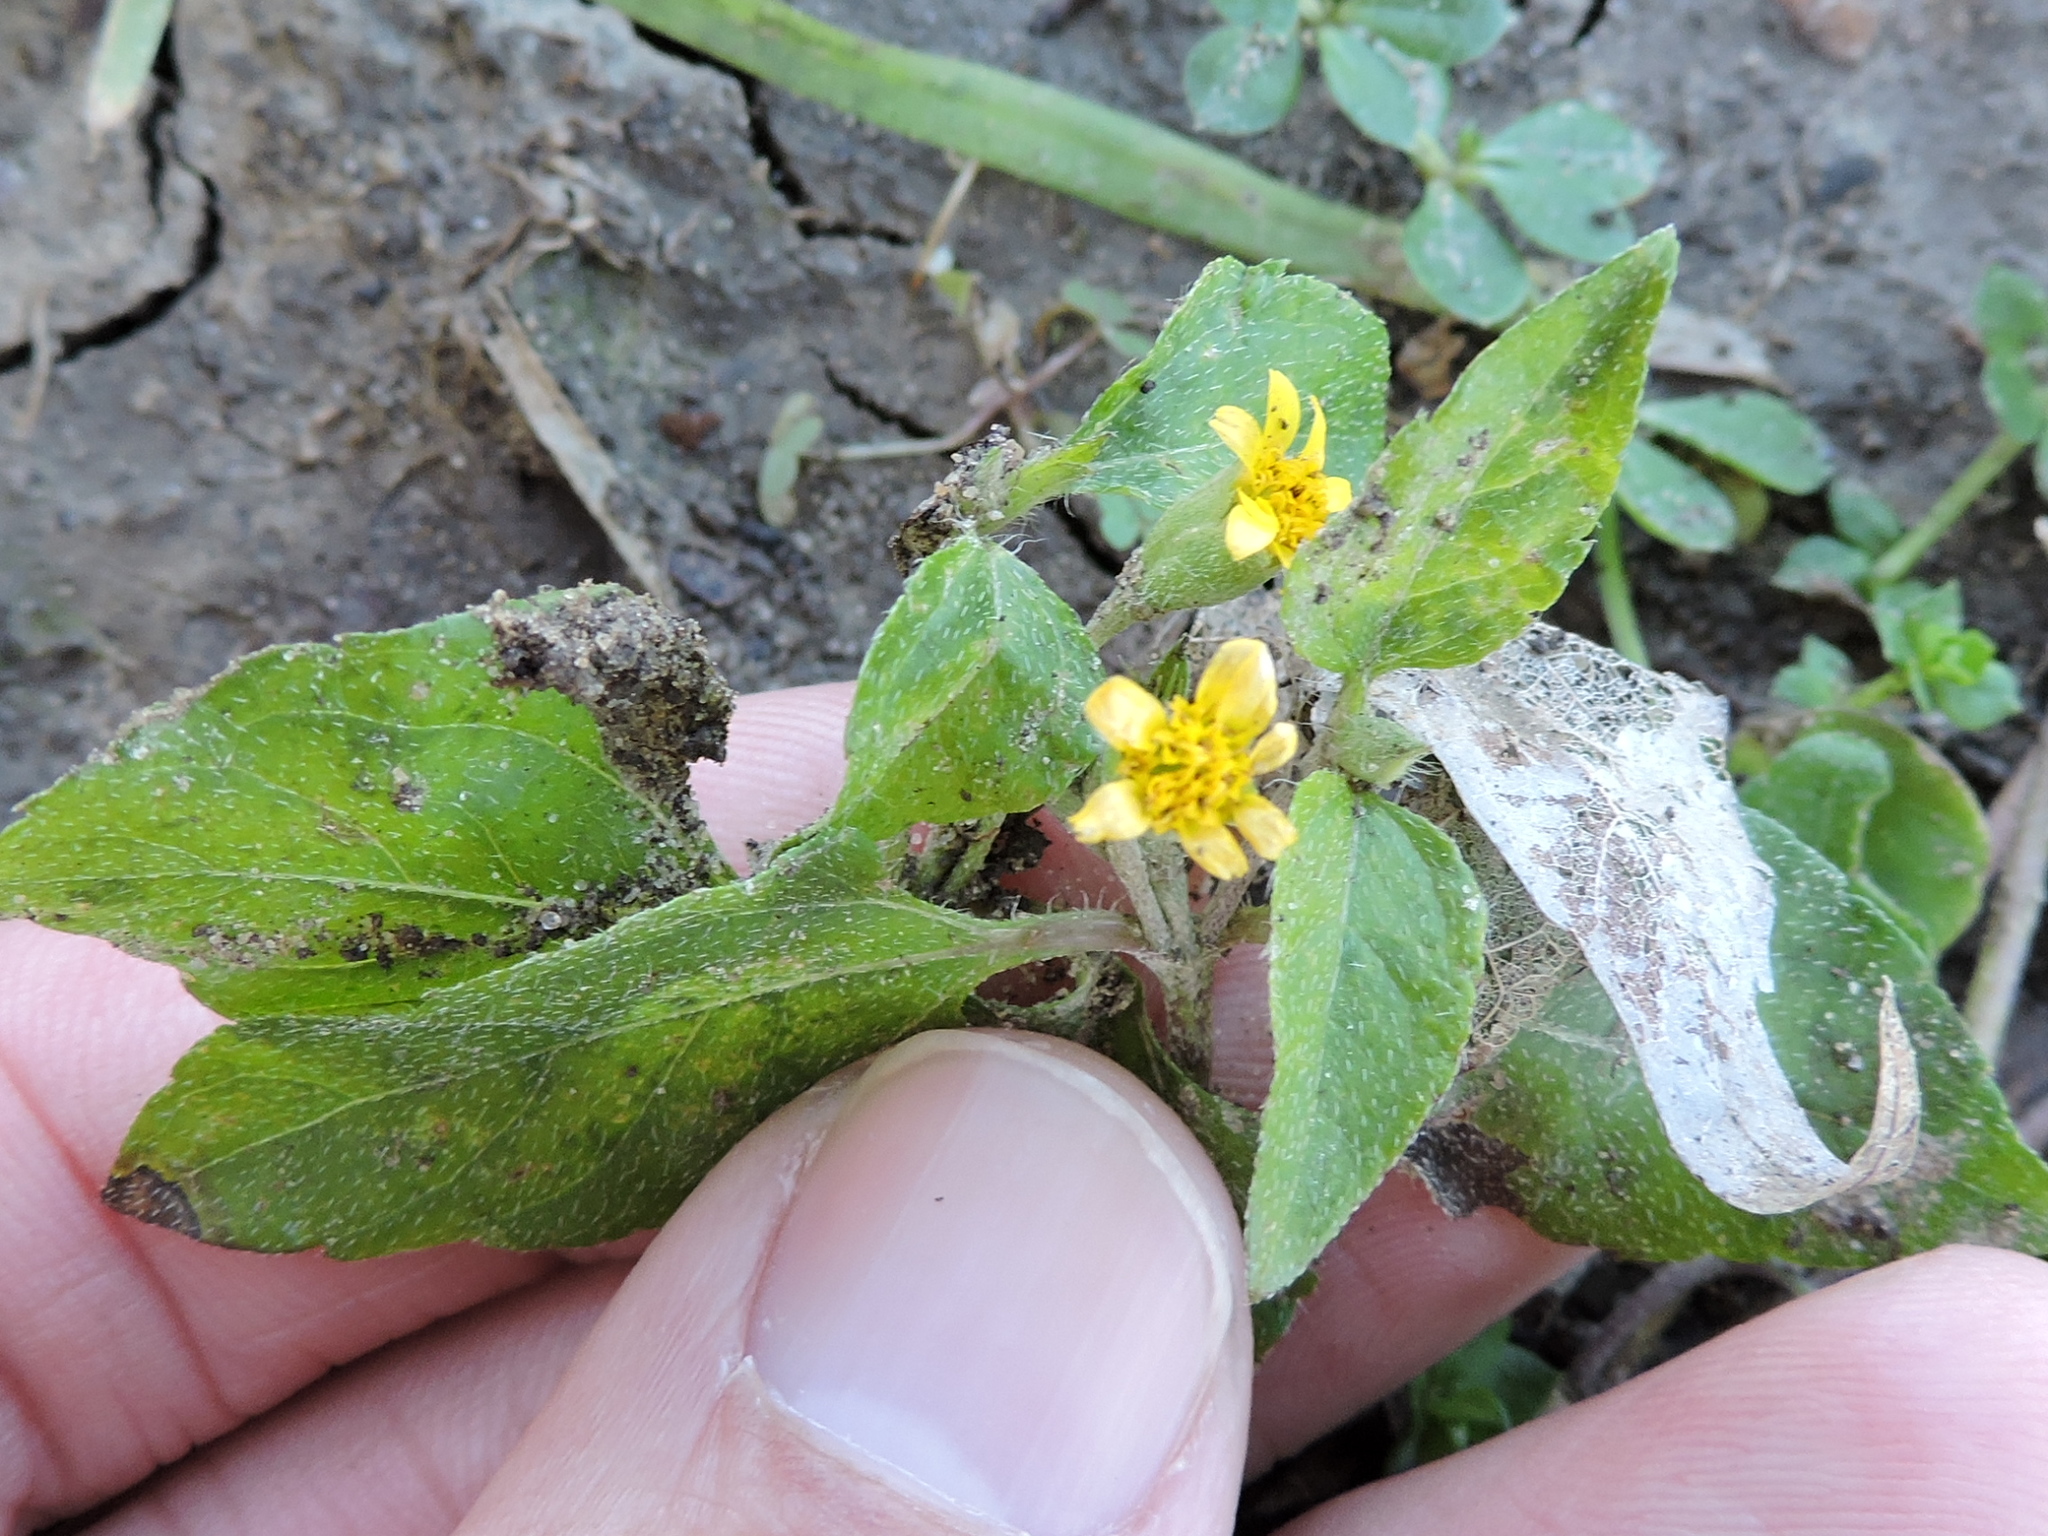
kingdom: Plantae
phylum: Tracheophyta
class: Magnoliopsida
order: Asterales
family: Asteraceae
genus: Calyptocarpus
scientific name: Calyptocarpus vialis
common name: Straggler daisy
